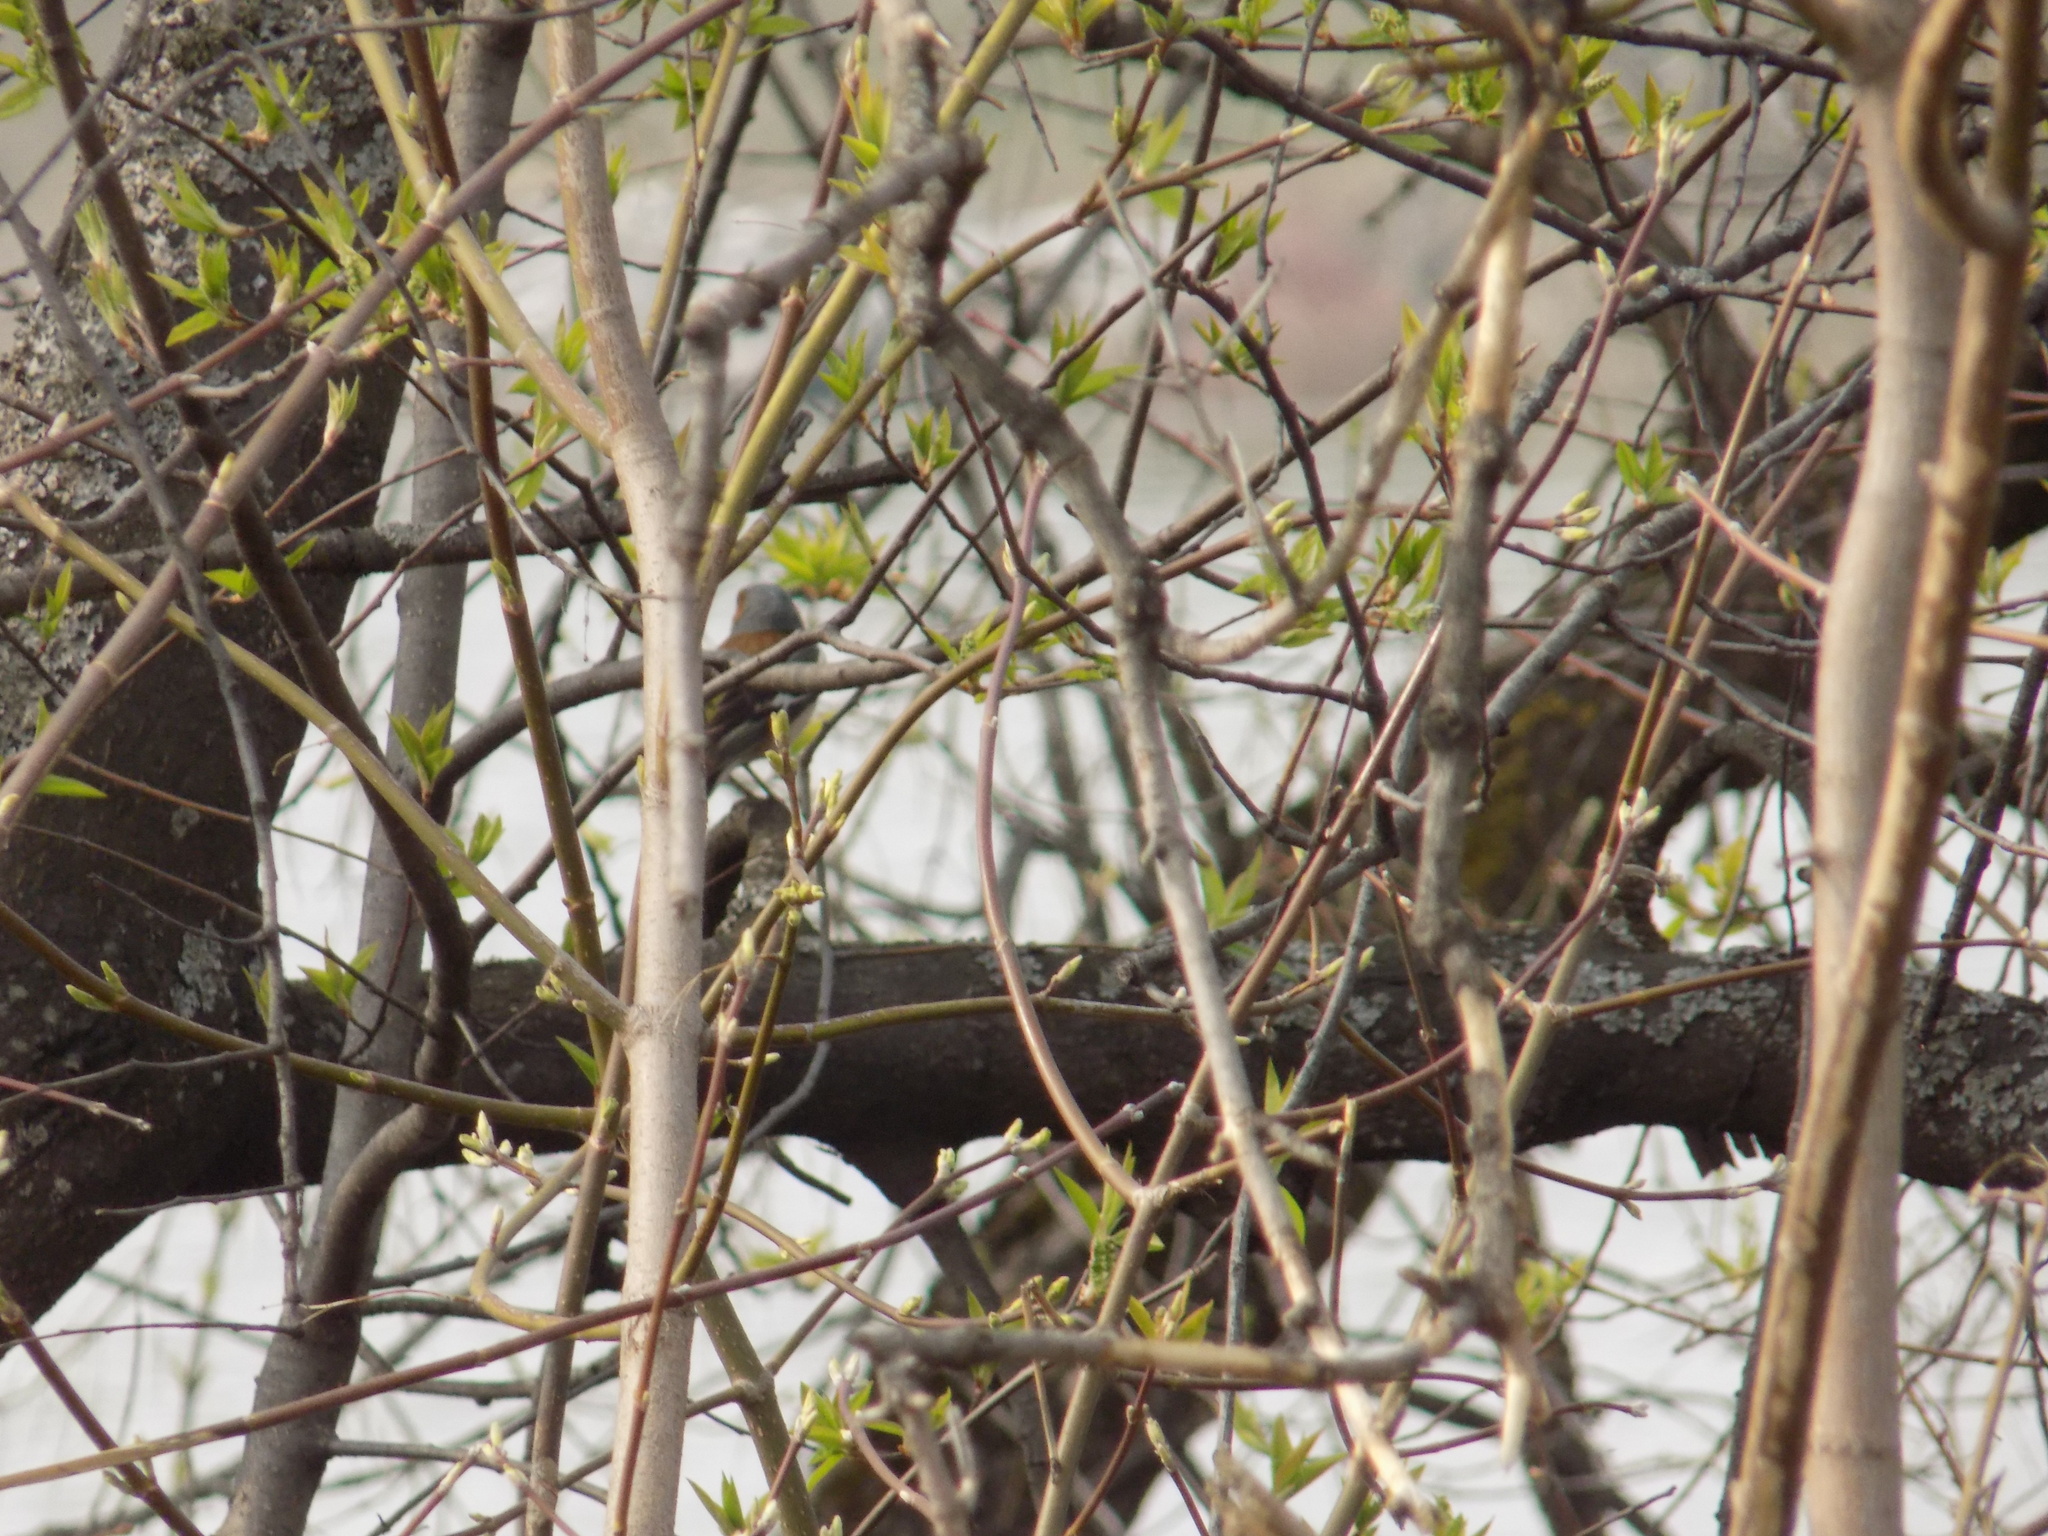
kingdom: Animalia
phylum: Chordata
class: Aves
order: Passeriformes
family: Fringillidae
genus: Fringilla
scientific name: Fringilla coelebs
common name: Common chaffinch
